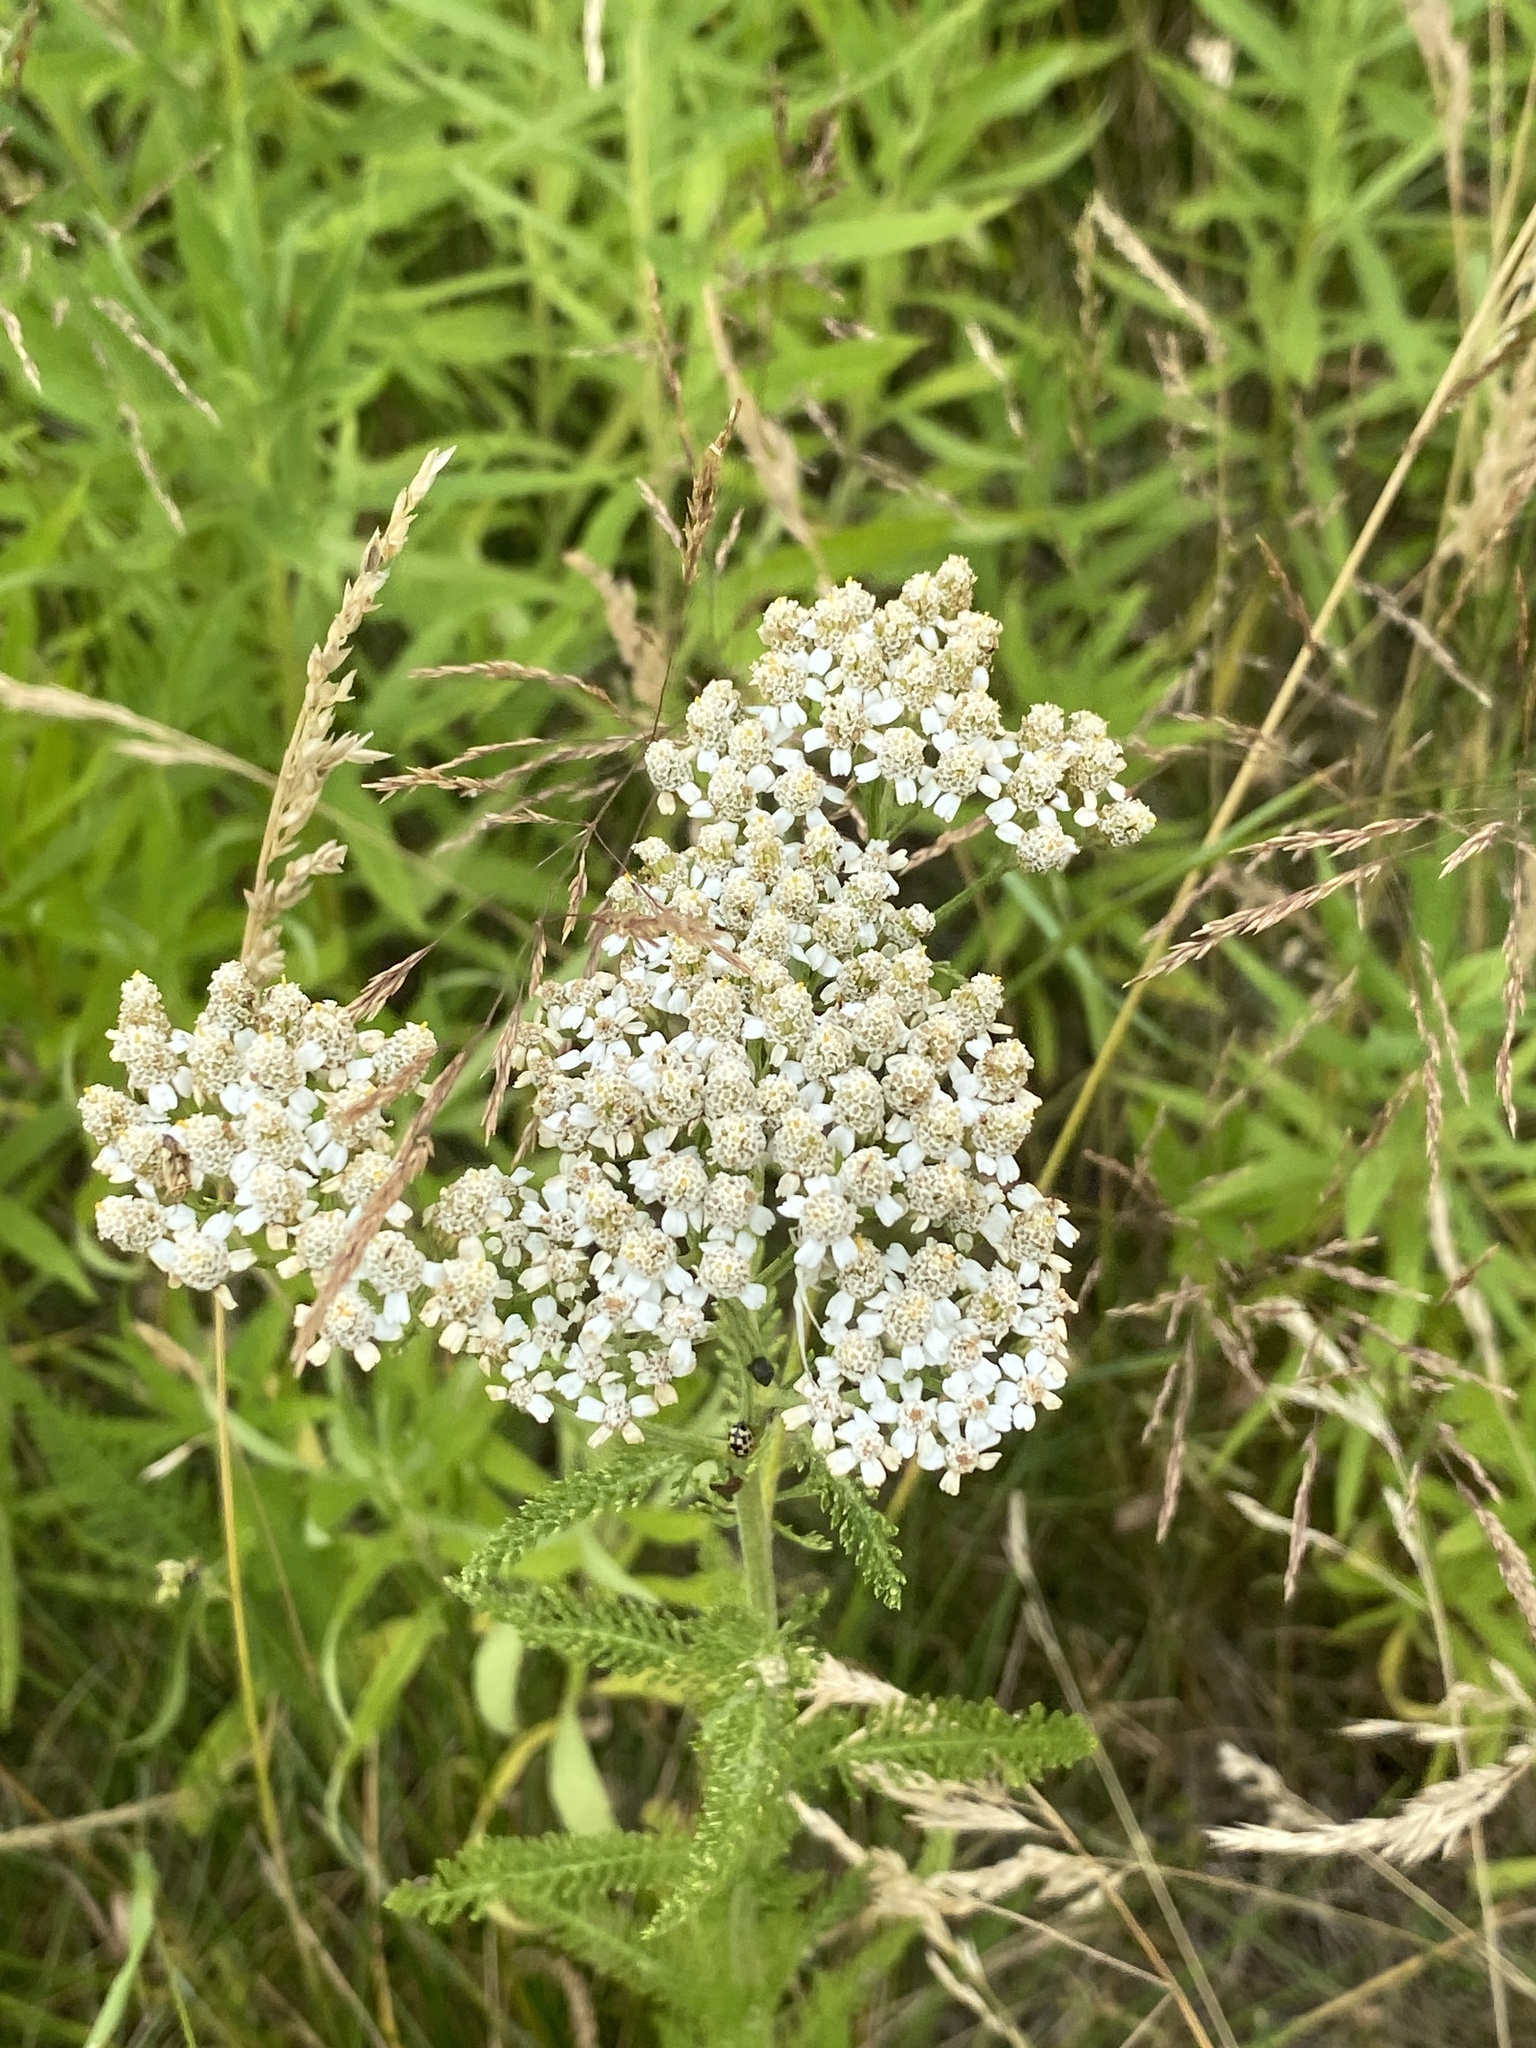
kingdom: Plantae
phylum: Tracheophyta
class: Magnoliopsida
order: Asterales
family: Asteraceae
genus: Achillea
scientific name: Achillea millefolium
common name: Yarrow
